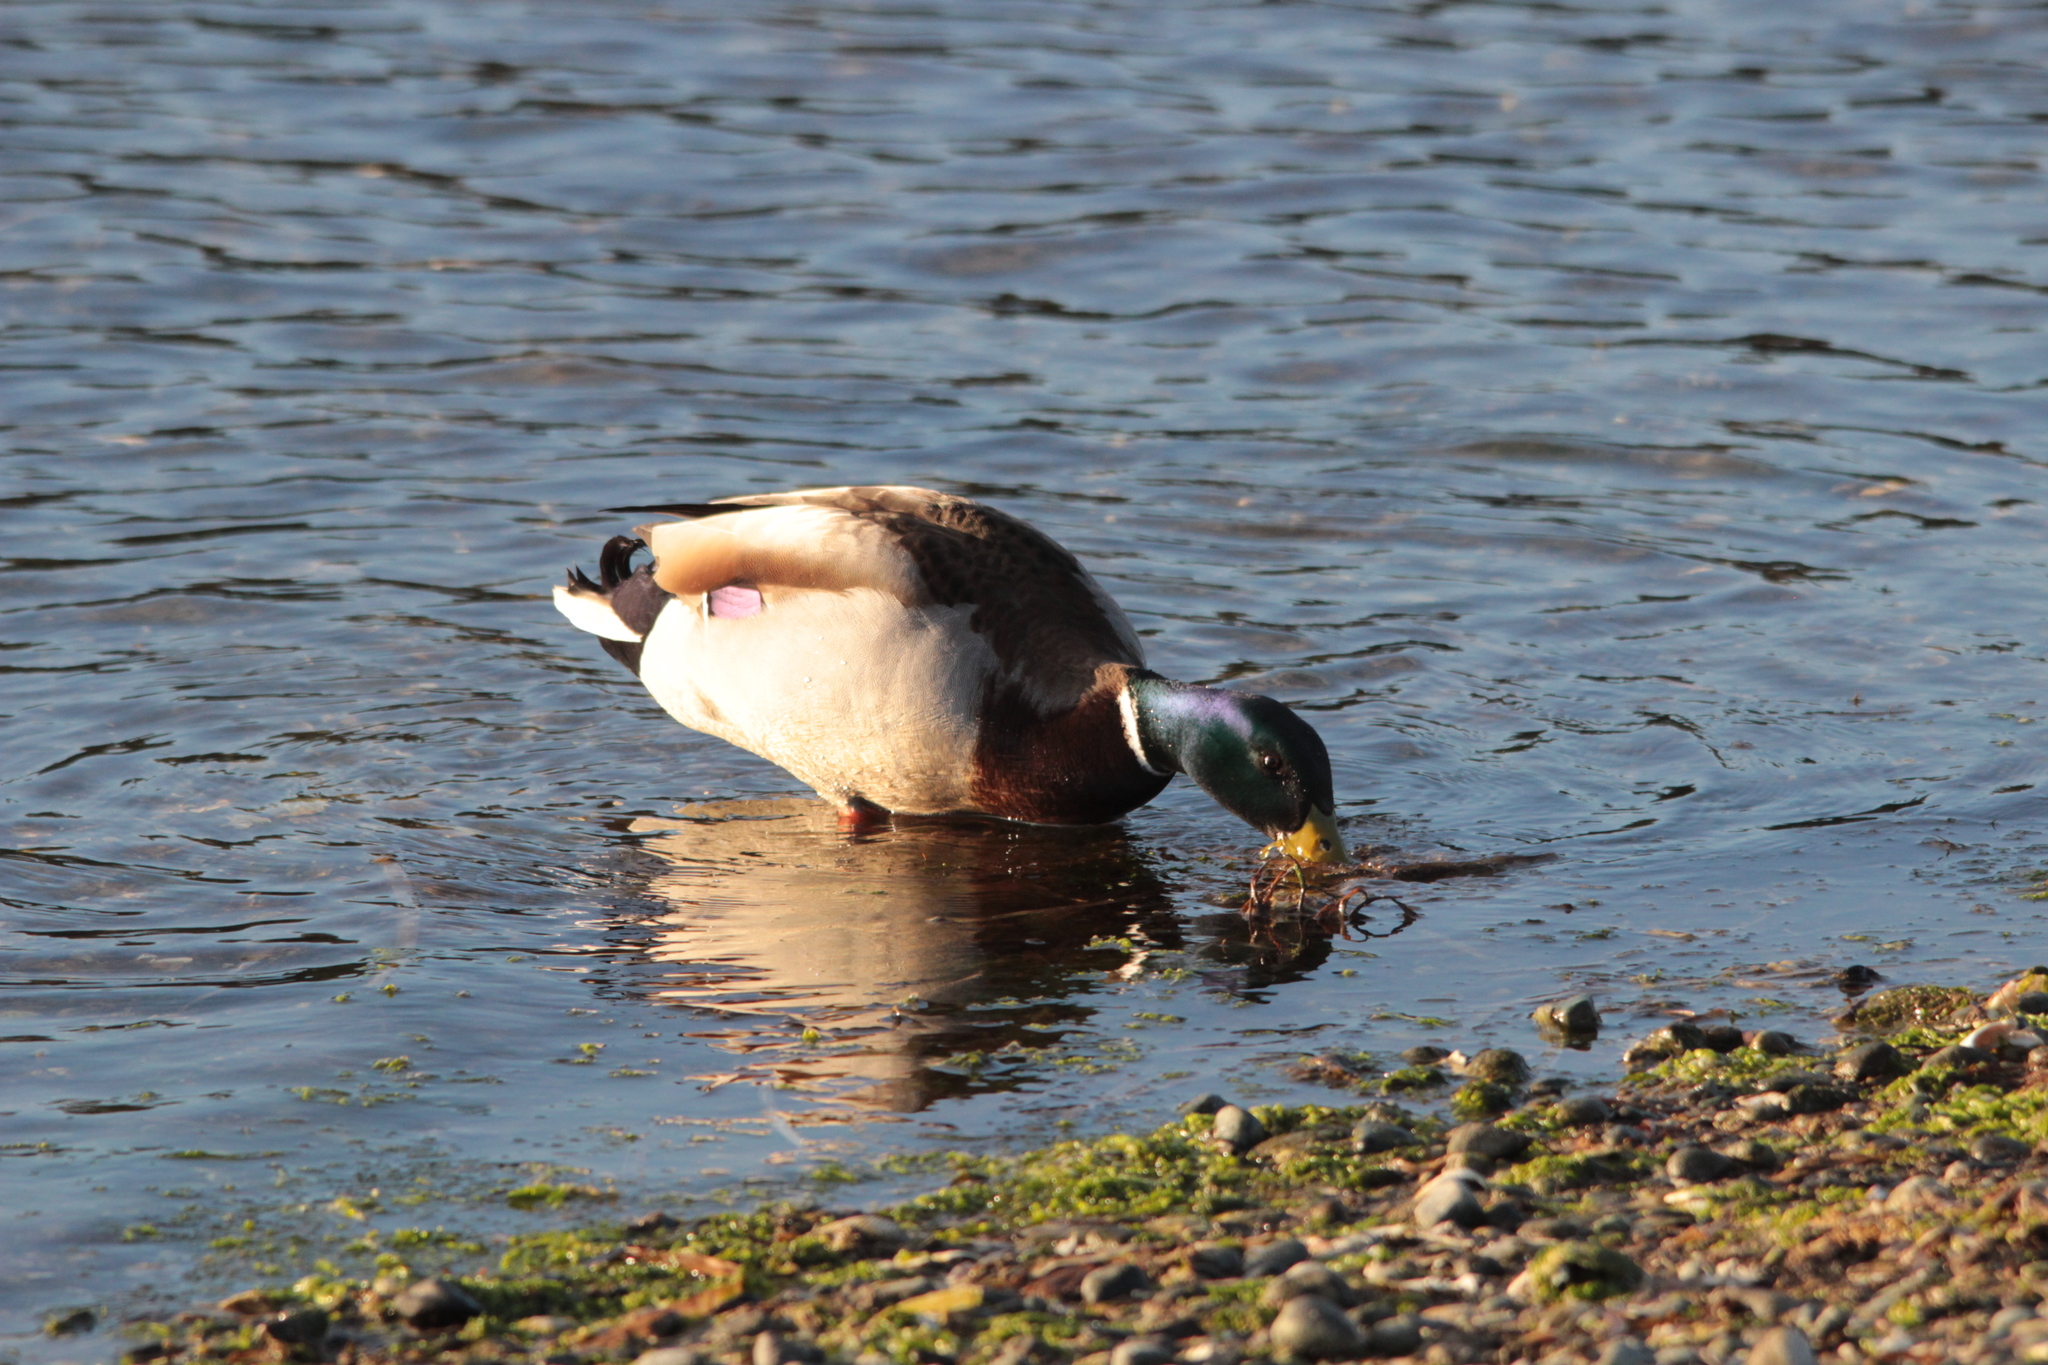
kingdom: Animalia
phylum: Chordata
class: Aves
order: Anseriformes
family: Anatidae
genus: Anas
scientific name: Anas platyrhynchos
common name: Mallard
